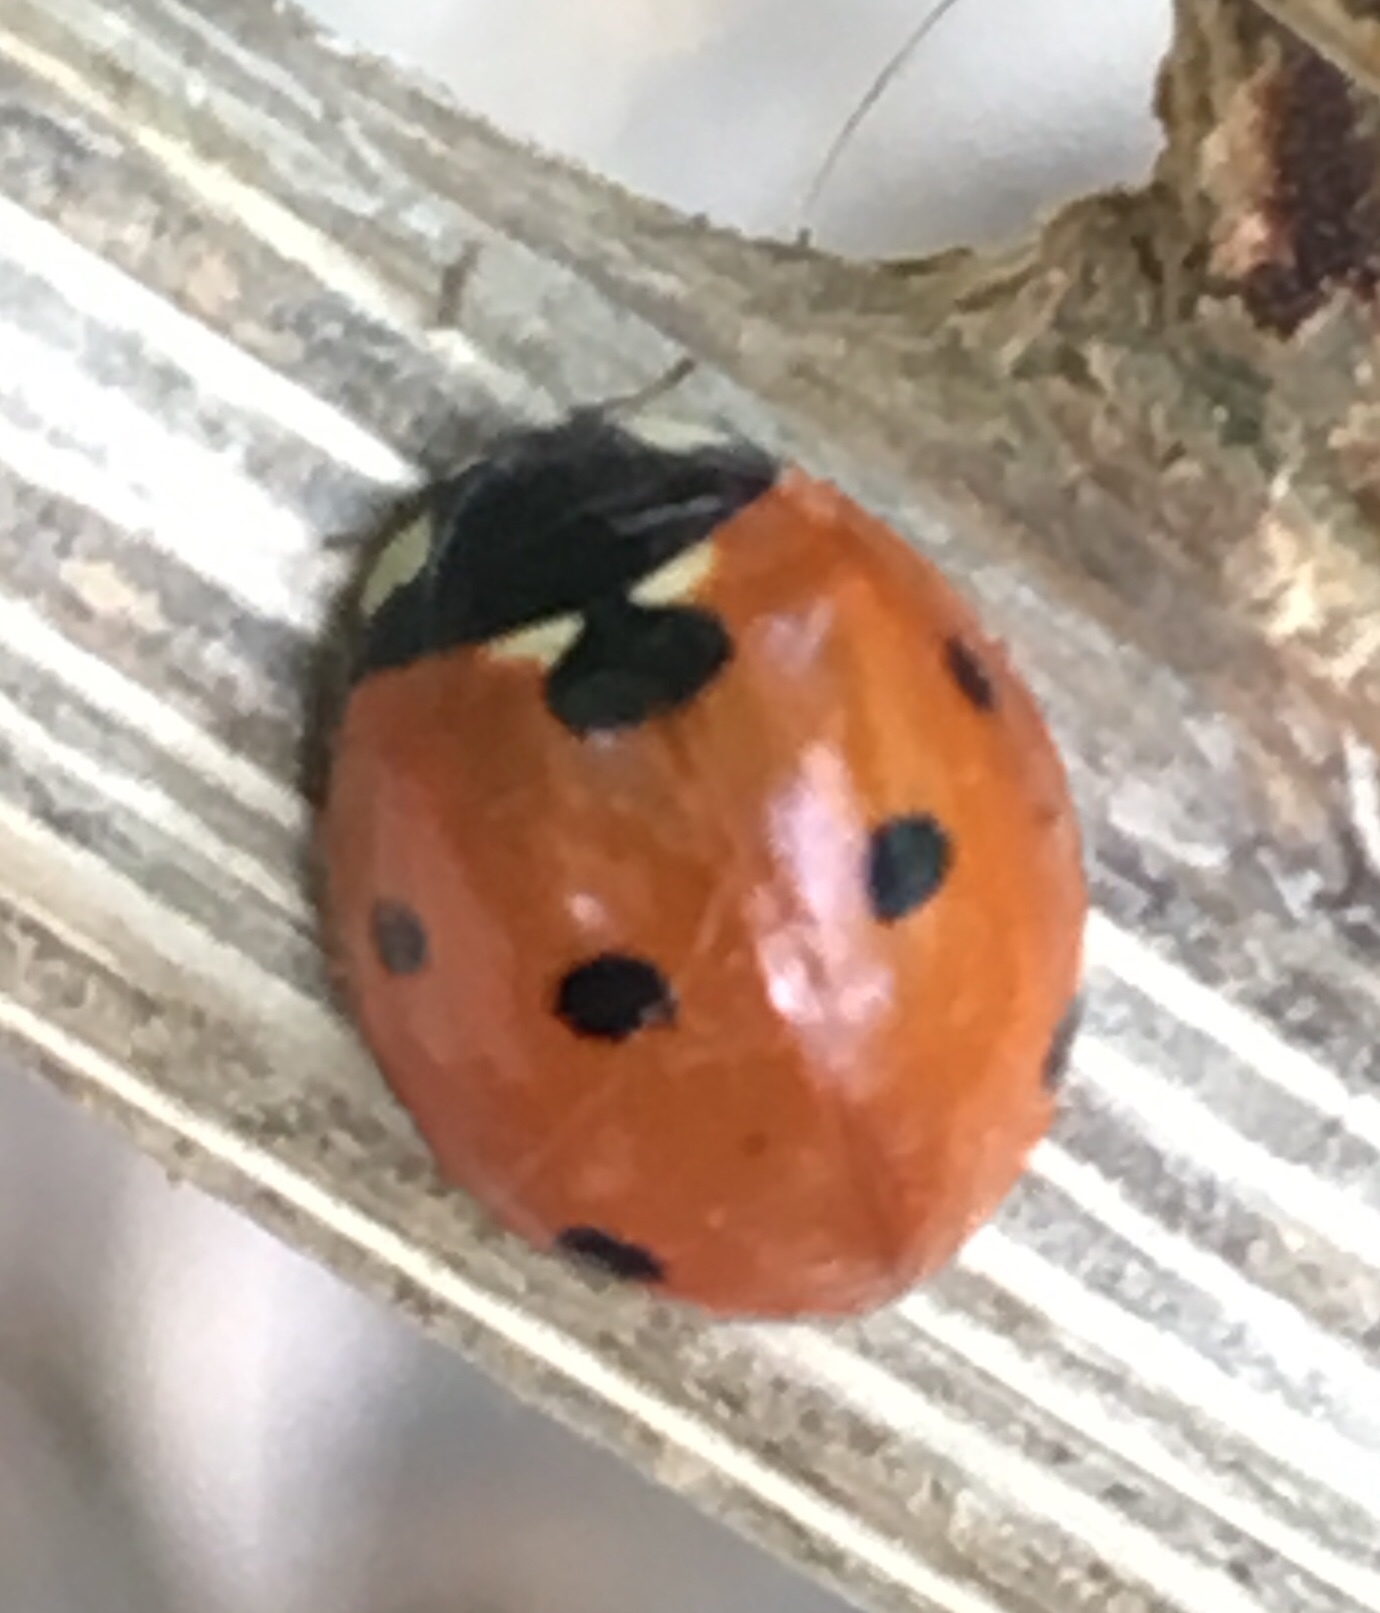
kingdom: Animalia
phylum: Arthropoda
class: Insecta
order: Coleoptera
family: Coccinellidae
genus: Coccinella
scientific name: Coccinella septempunctata
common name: Sevenspotted lady beetle
